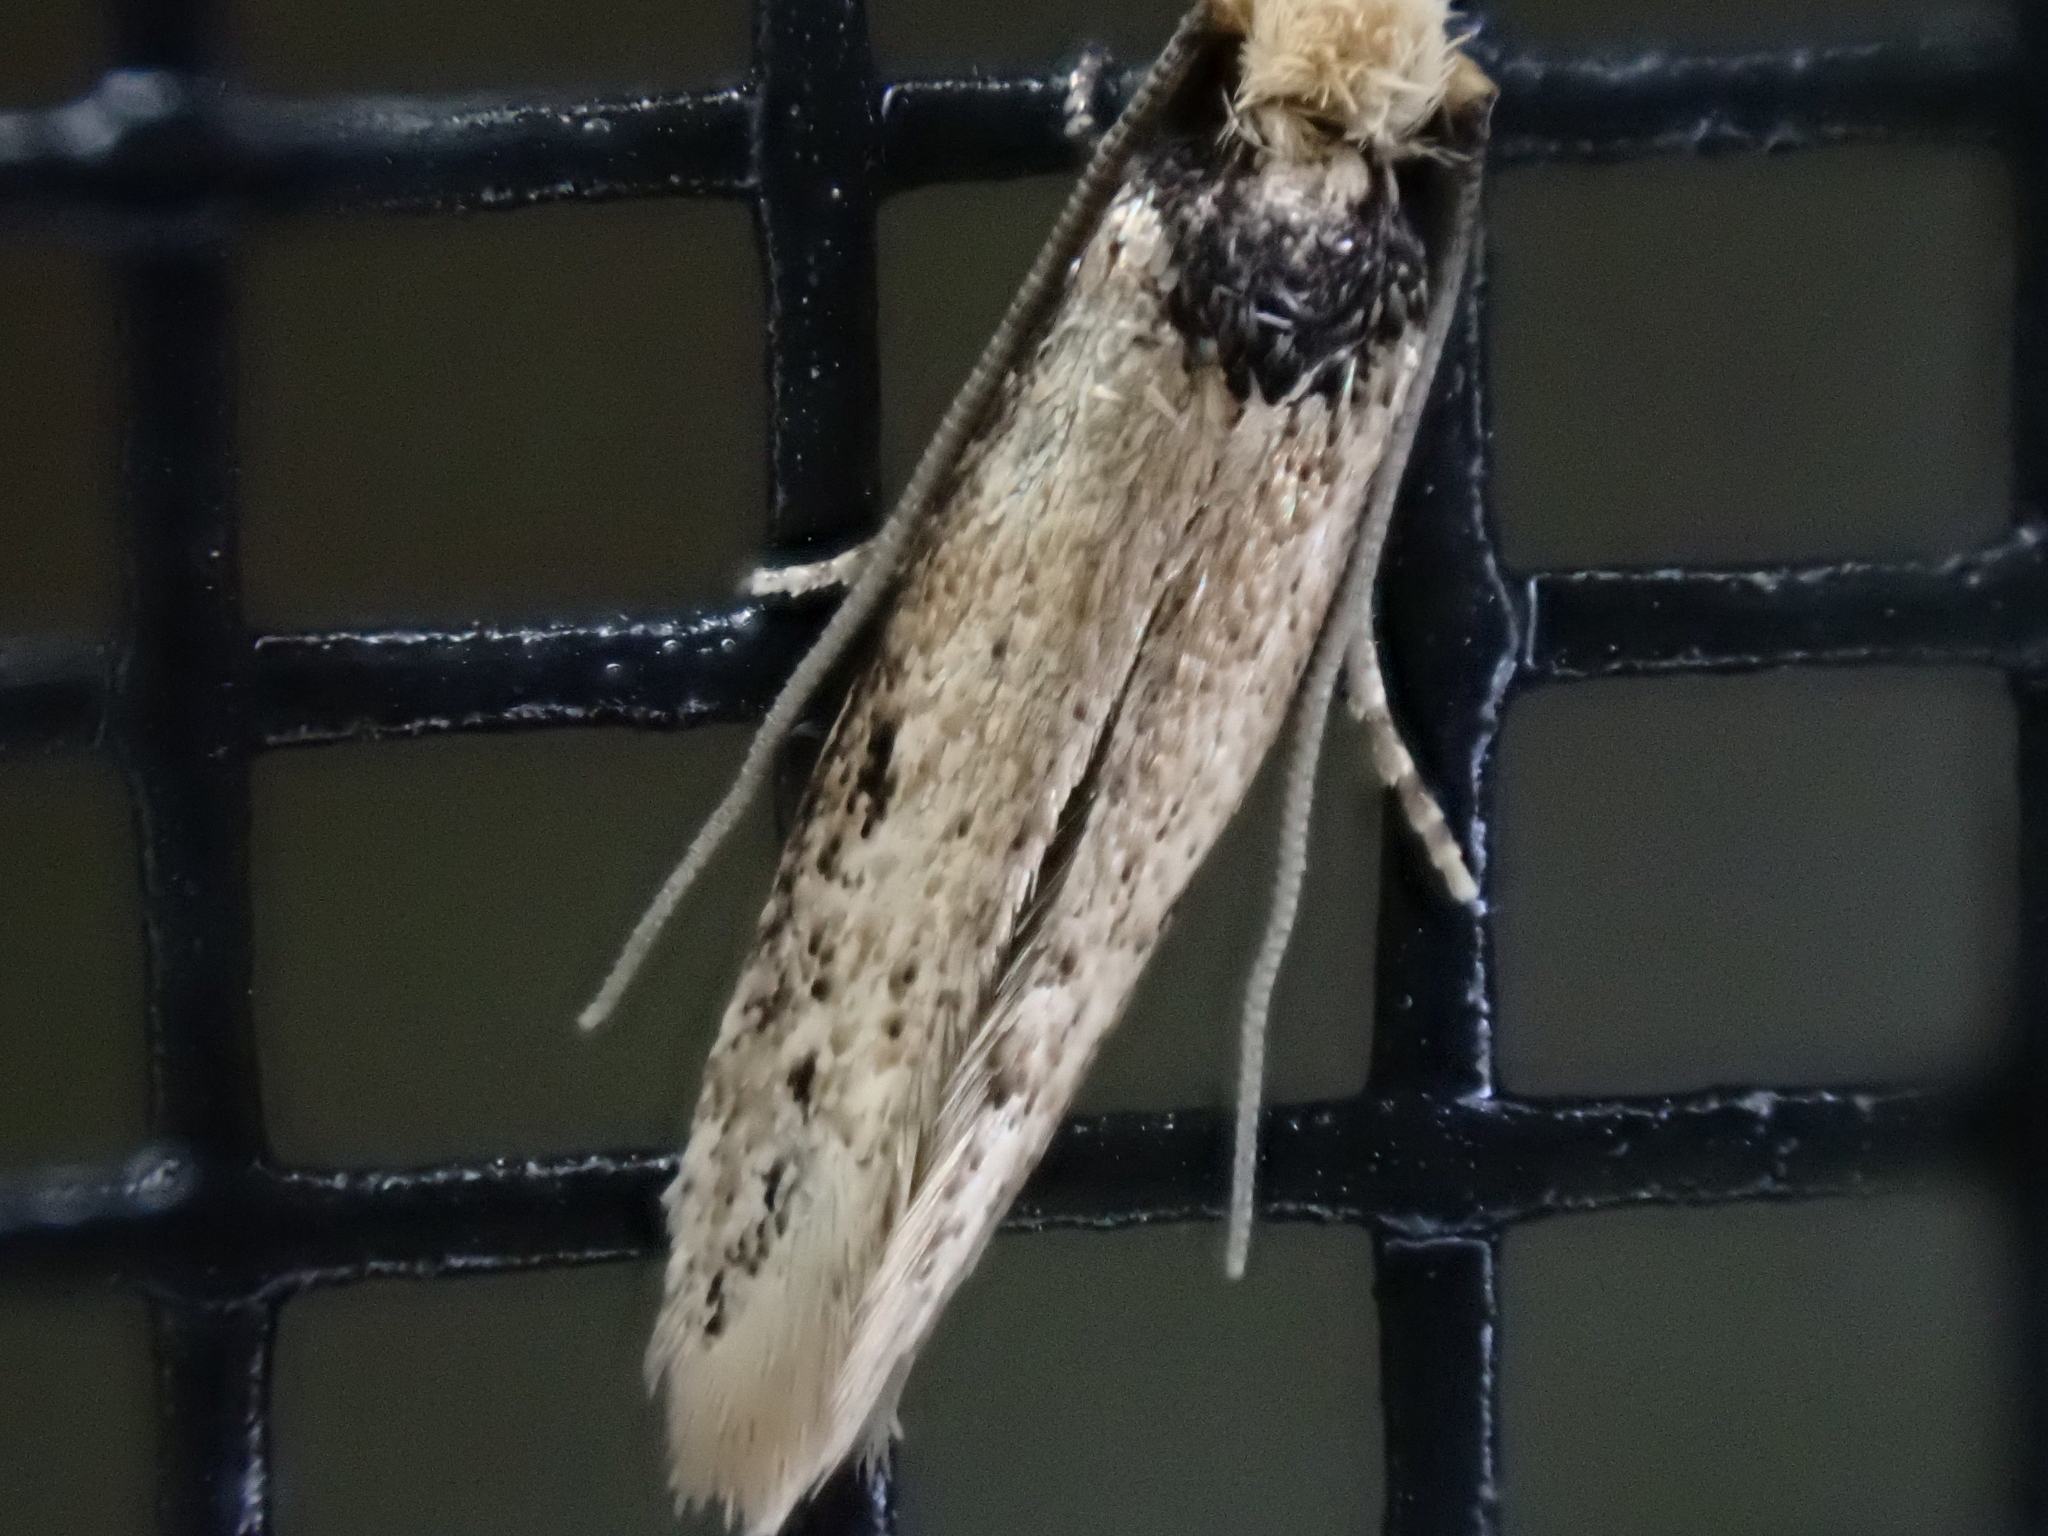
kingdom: Animalia
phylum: Arthropoda
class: Insecta
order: Lepidoptera
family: Tineidae
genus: Tinea
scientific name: Tinea apicimaculella
